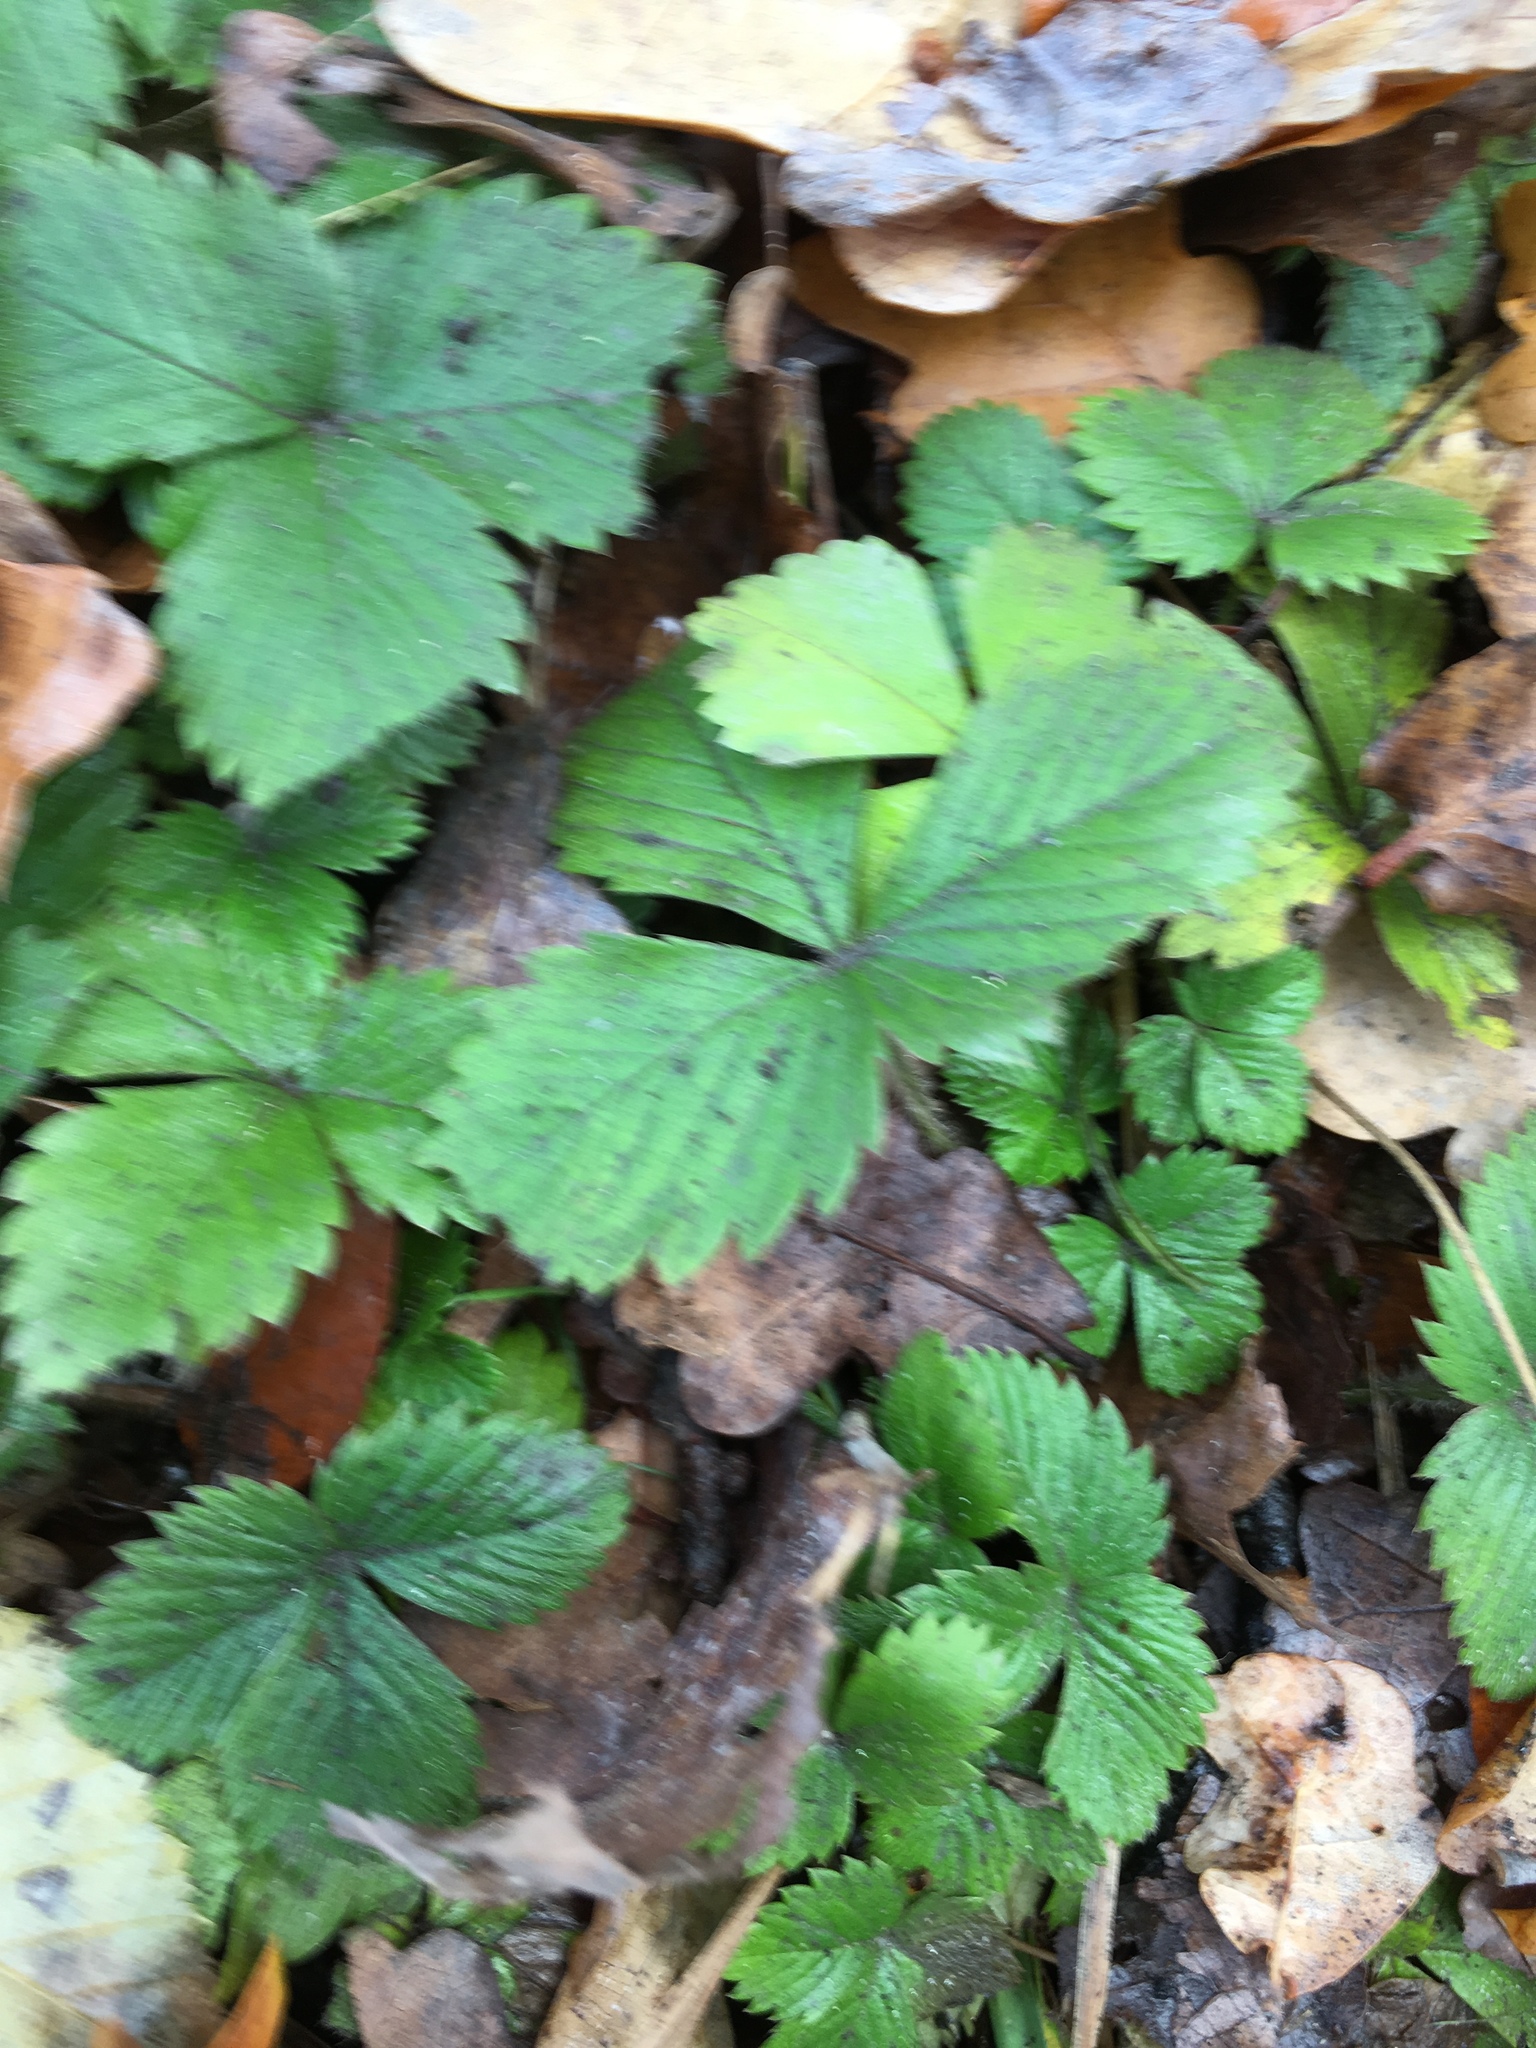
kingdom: Plantae
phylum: Tracheophyta
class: Magnoliopsida
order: Rosales
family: Rosaceae
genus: Fragaria
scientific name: Fragaria vesca
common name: Wild strawberry
